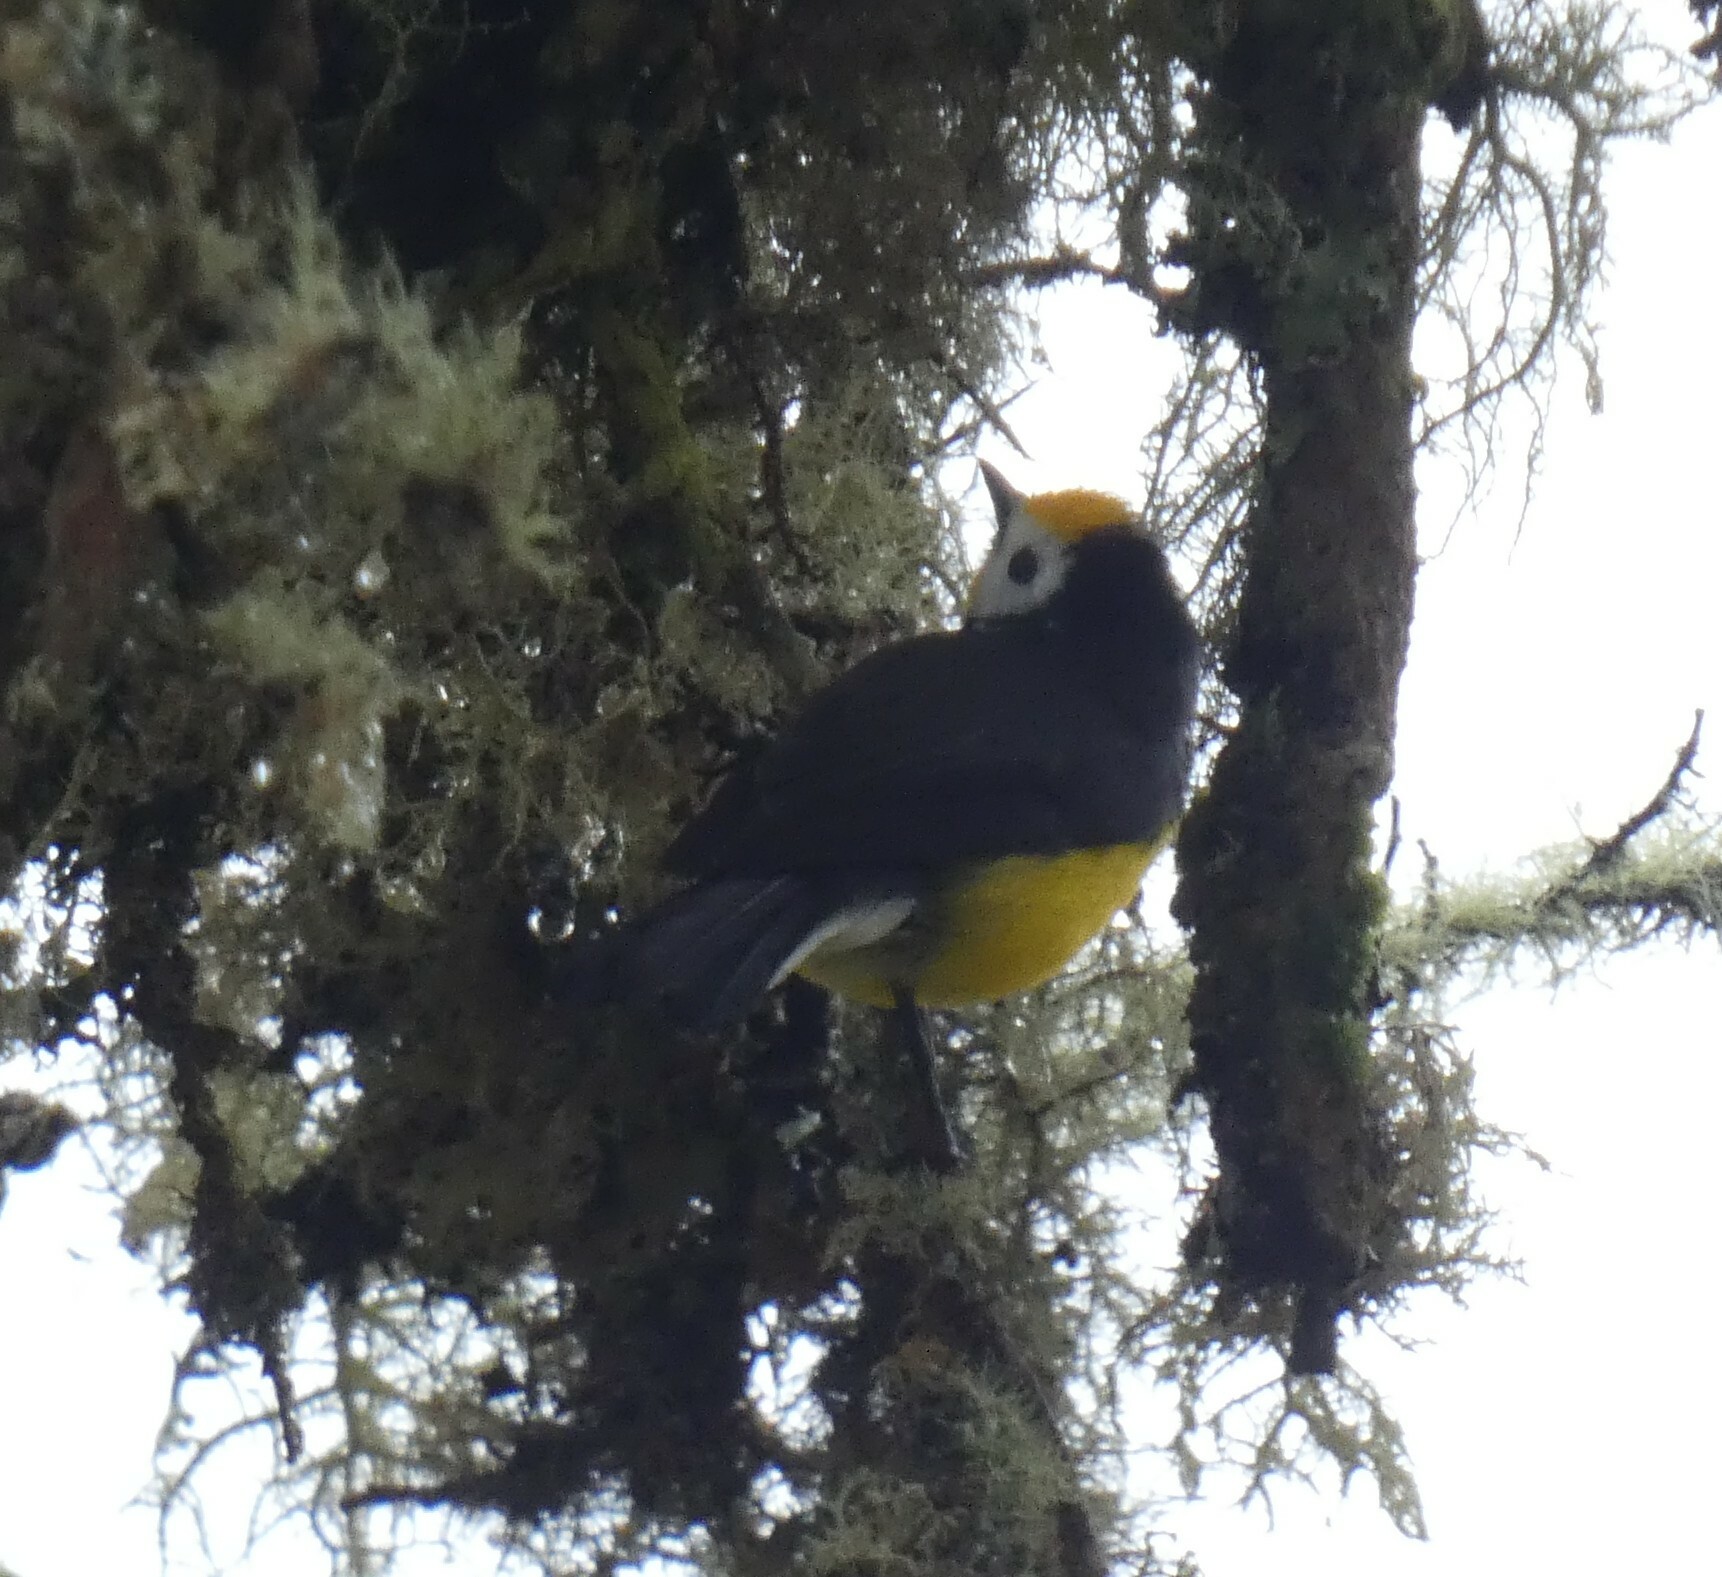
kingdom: Animalia
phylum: Chordata
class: Aves
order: Passeriformes
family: Parulidae
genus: Myioborus
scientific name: Myioborus ornatus
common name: Golden-fronted whitestart
